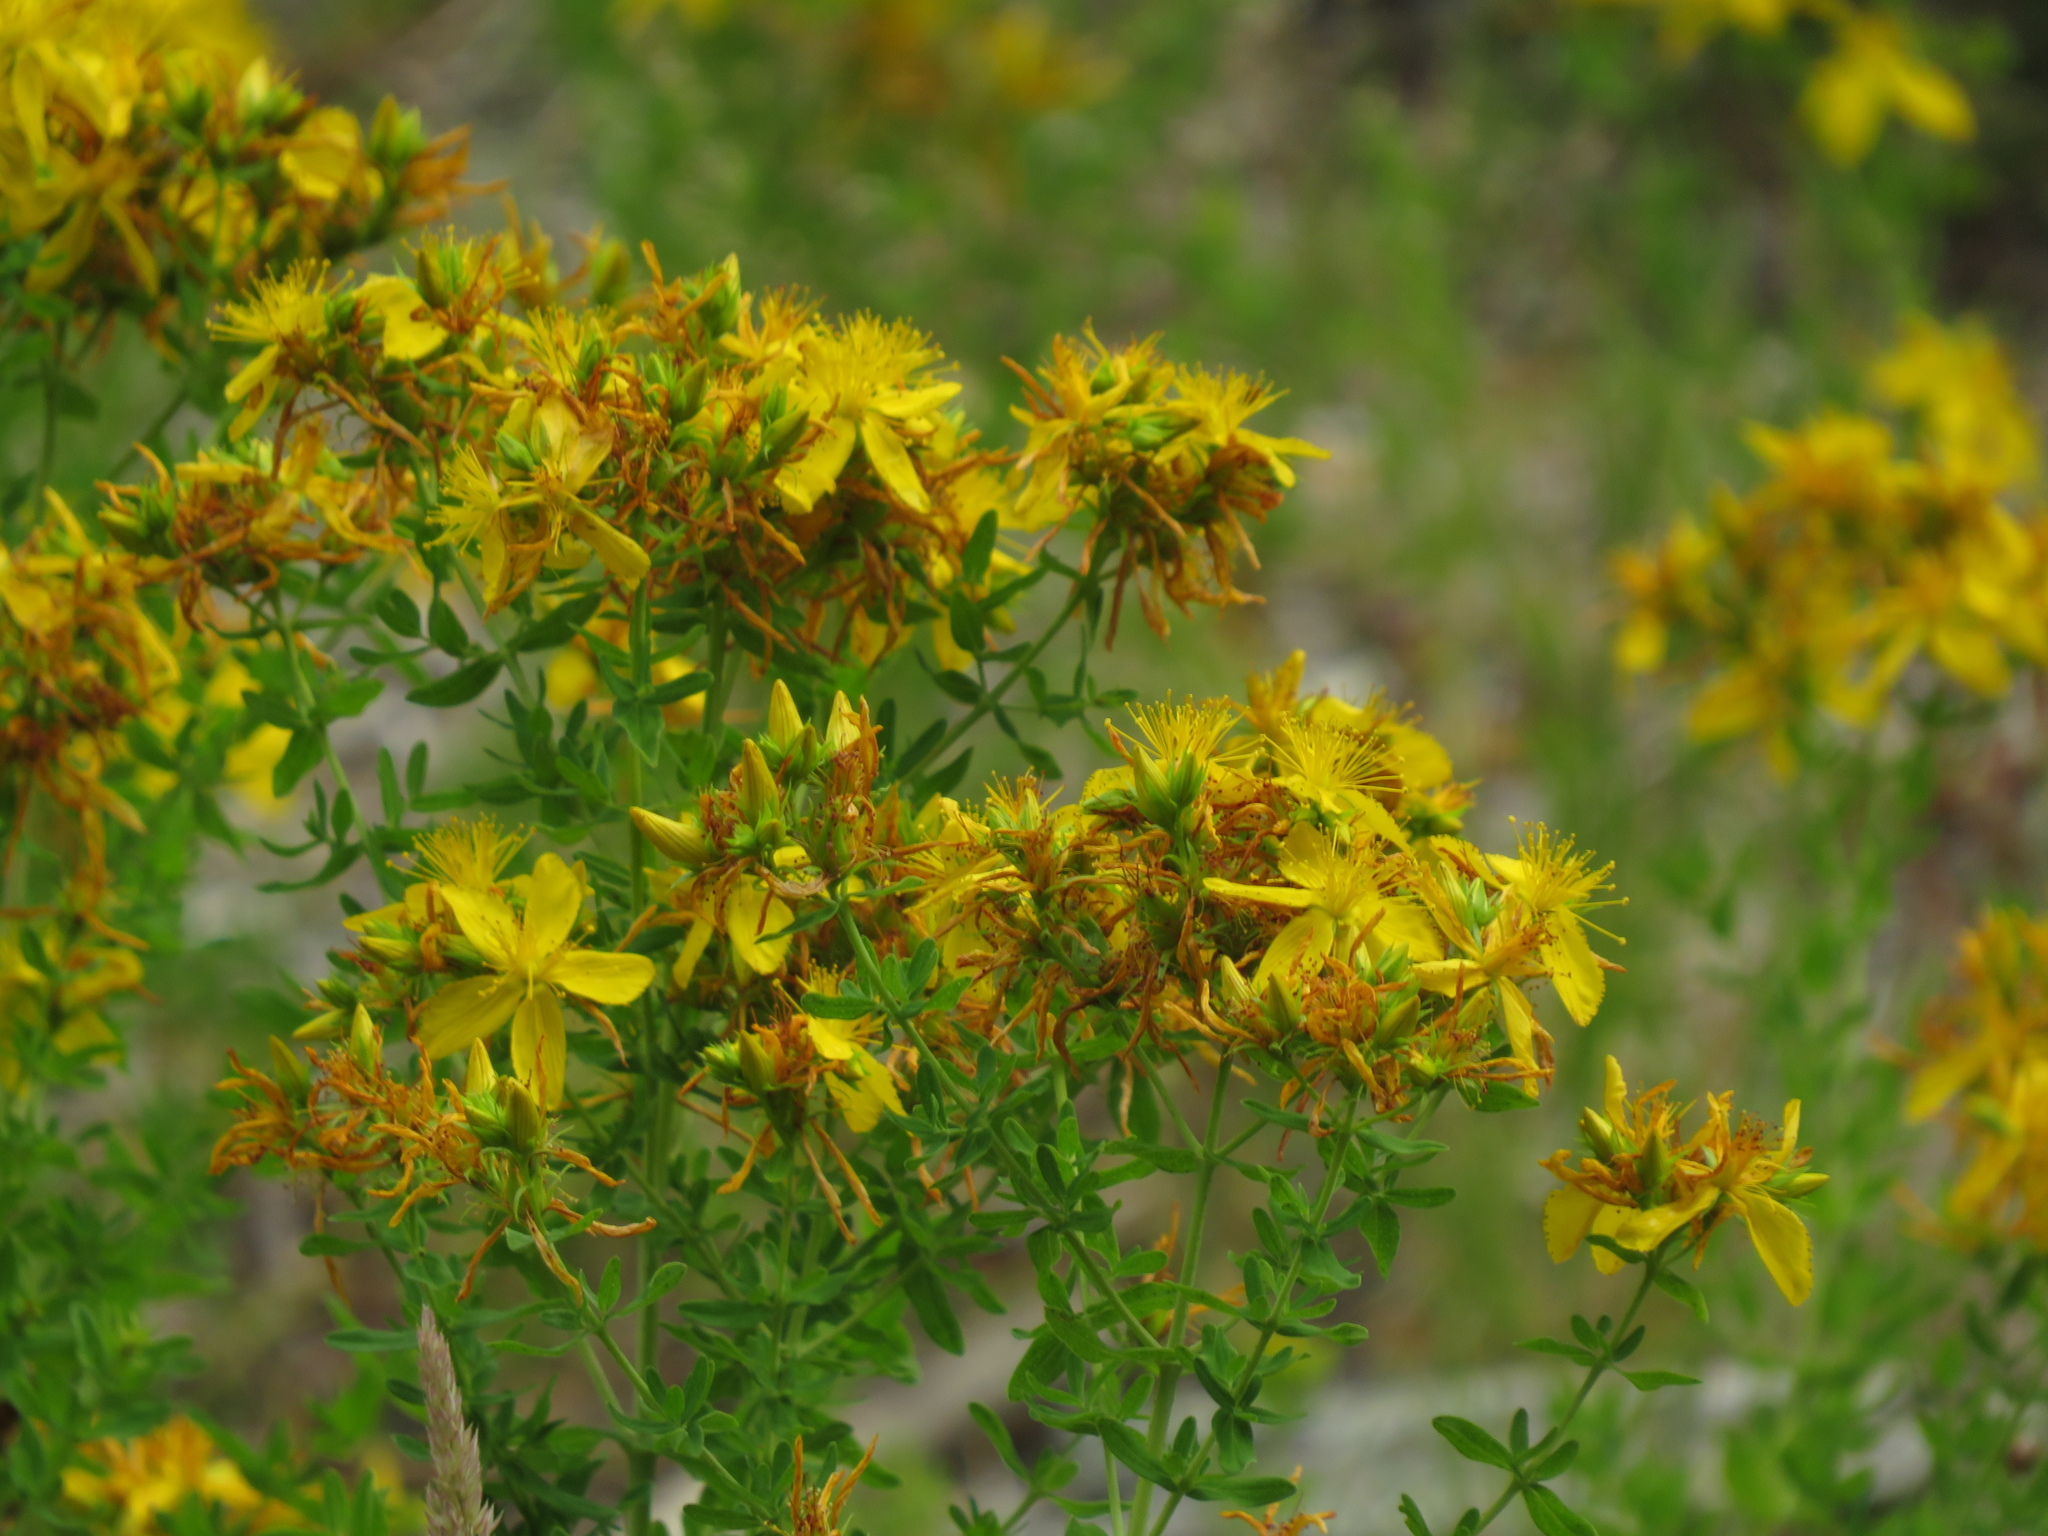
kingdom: Plantae
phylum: Tracheophyta
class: Magnoliopsida
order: Malpighiales
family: Hypericaceae
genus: Hypericum
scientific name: Hypericum perforatum
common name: Common st. johnswort
